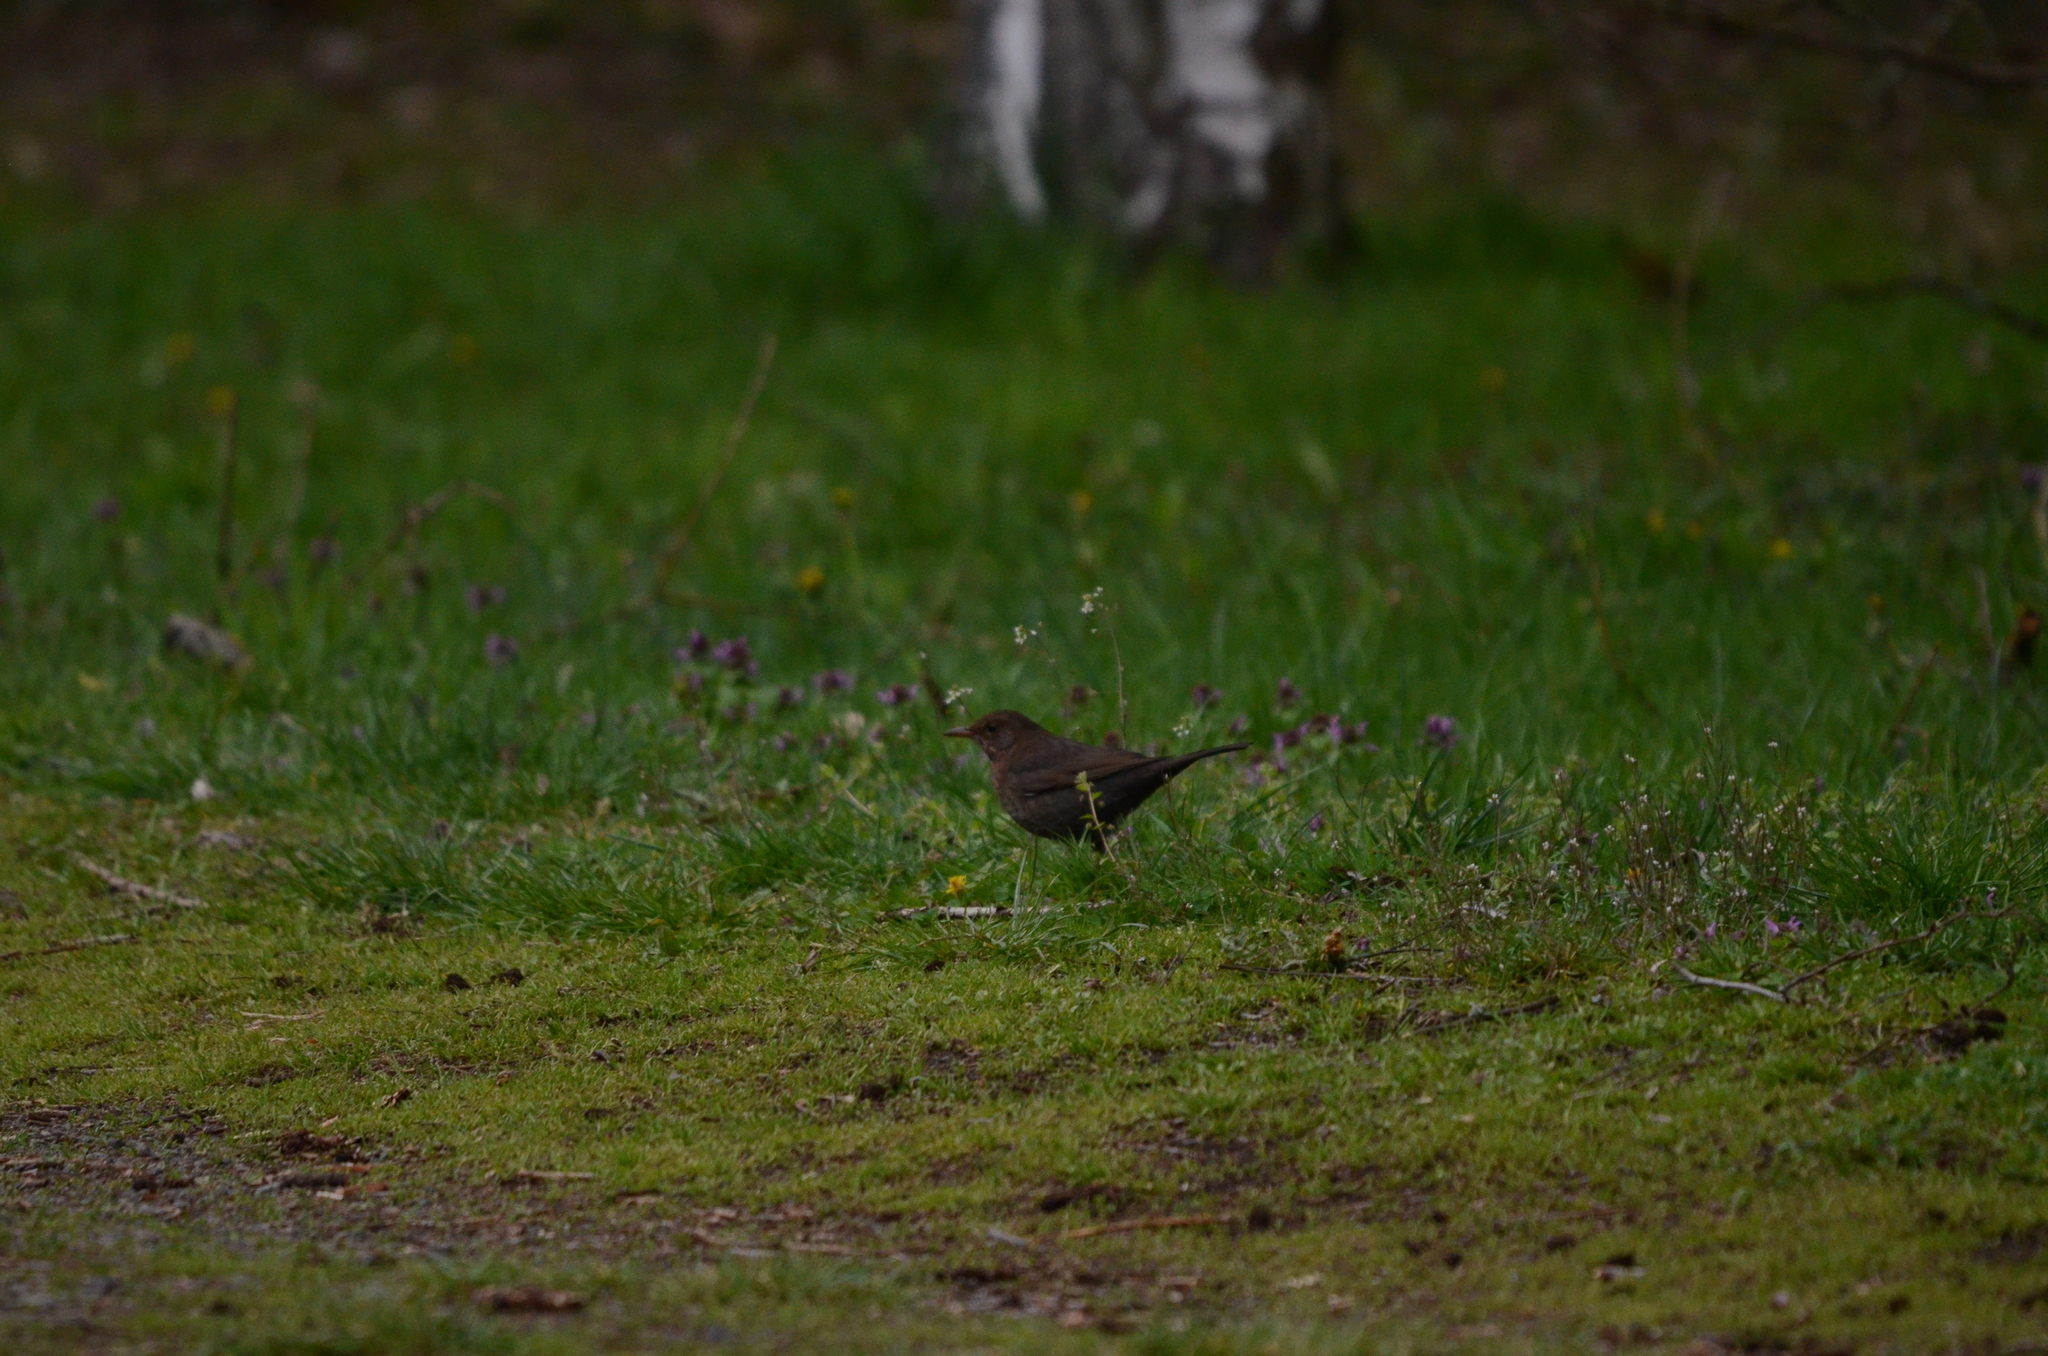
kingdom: Animalia
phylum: Chordata
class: Aves
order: Passeriformes
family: Turdidae
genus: Turdus
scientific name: Turdus merula
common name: Common blackbird
